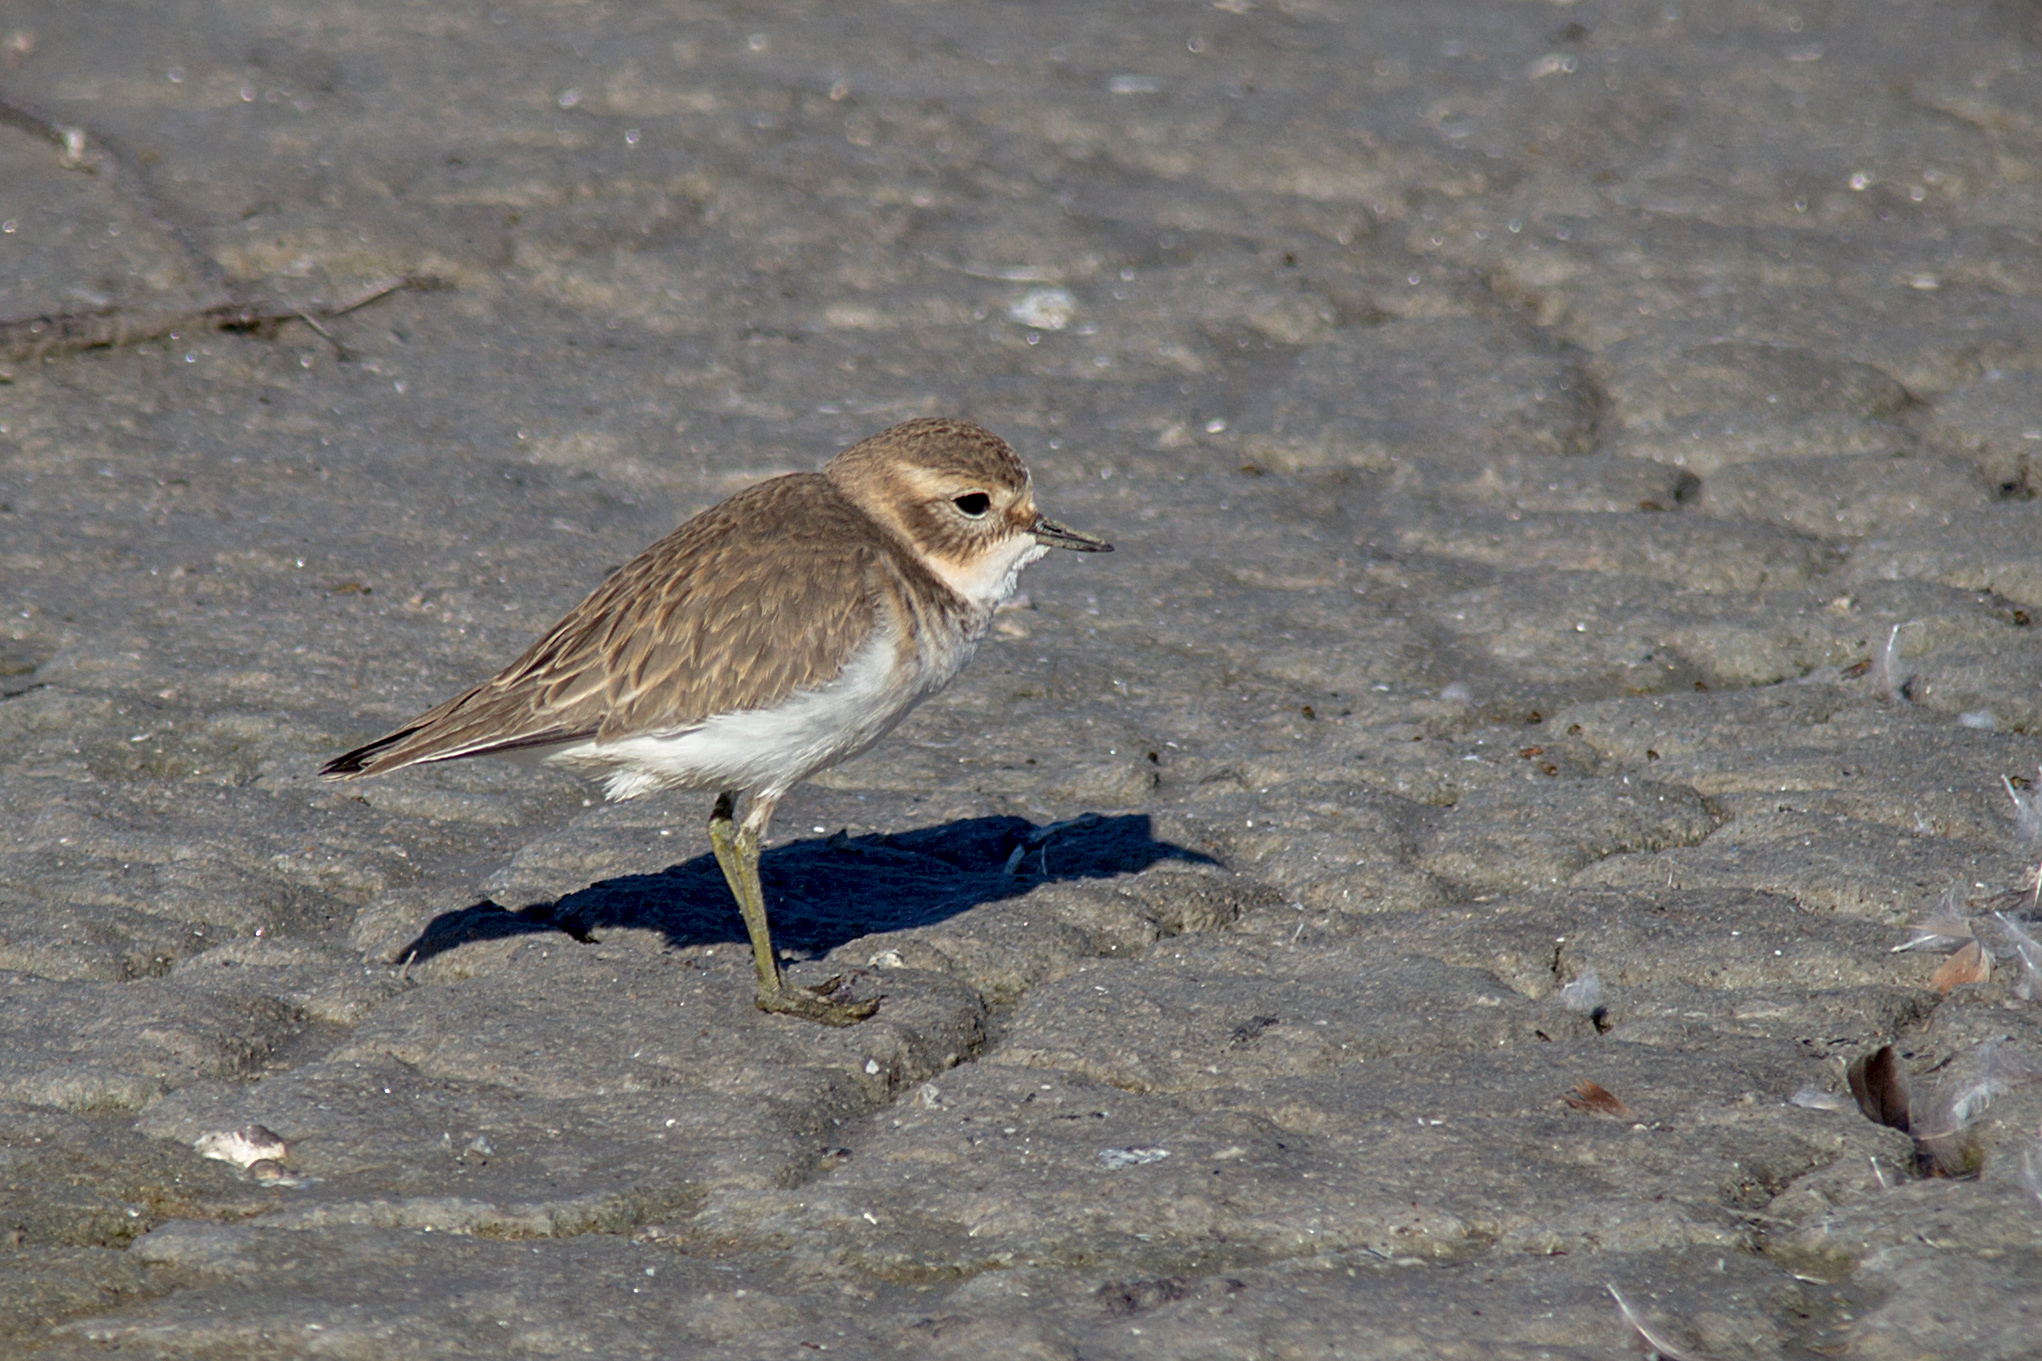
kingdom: Animalia
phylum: Chordata
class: Aves
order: Charadriiformes
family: Charadriidae
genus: Anarhynchus
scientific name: Anarhynchus
